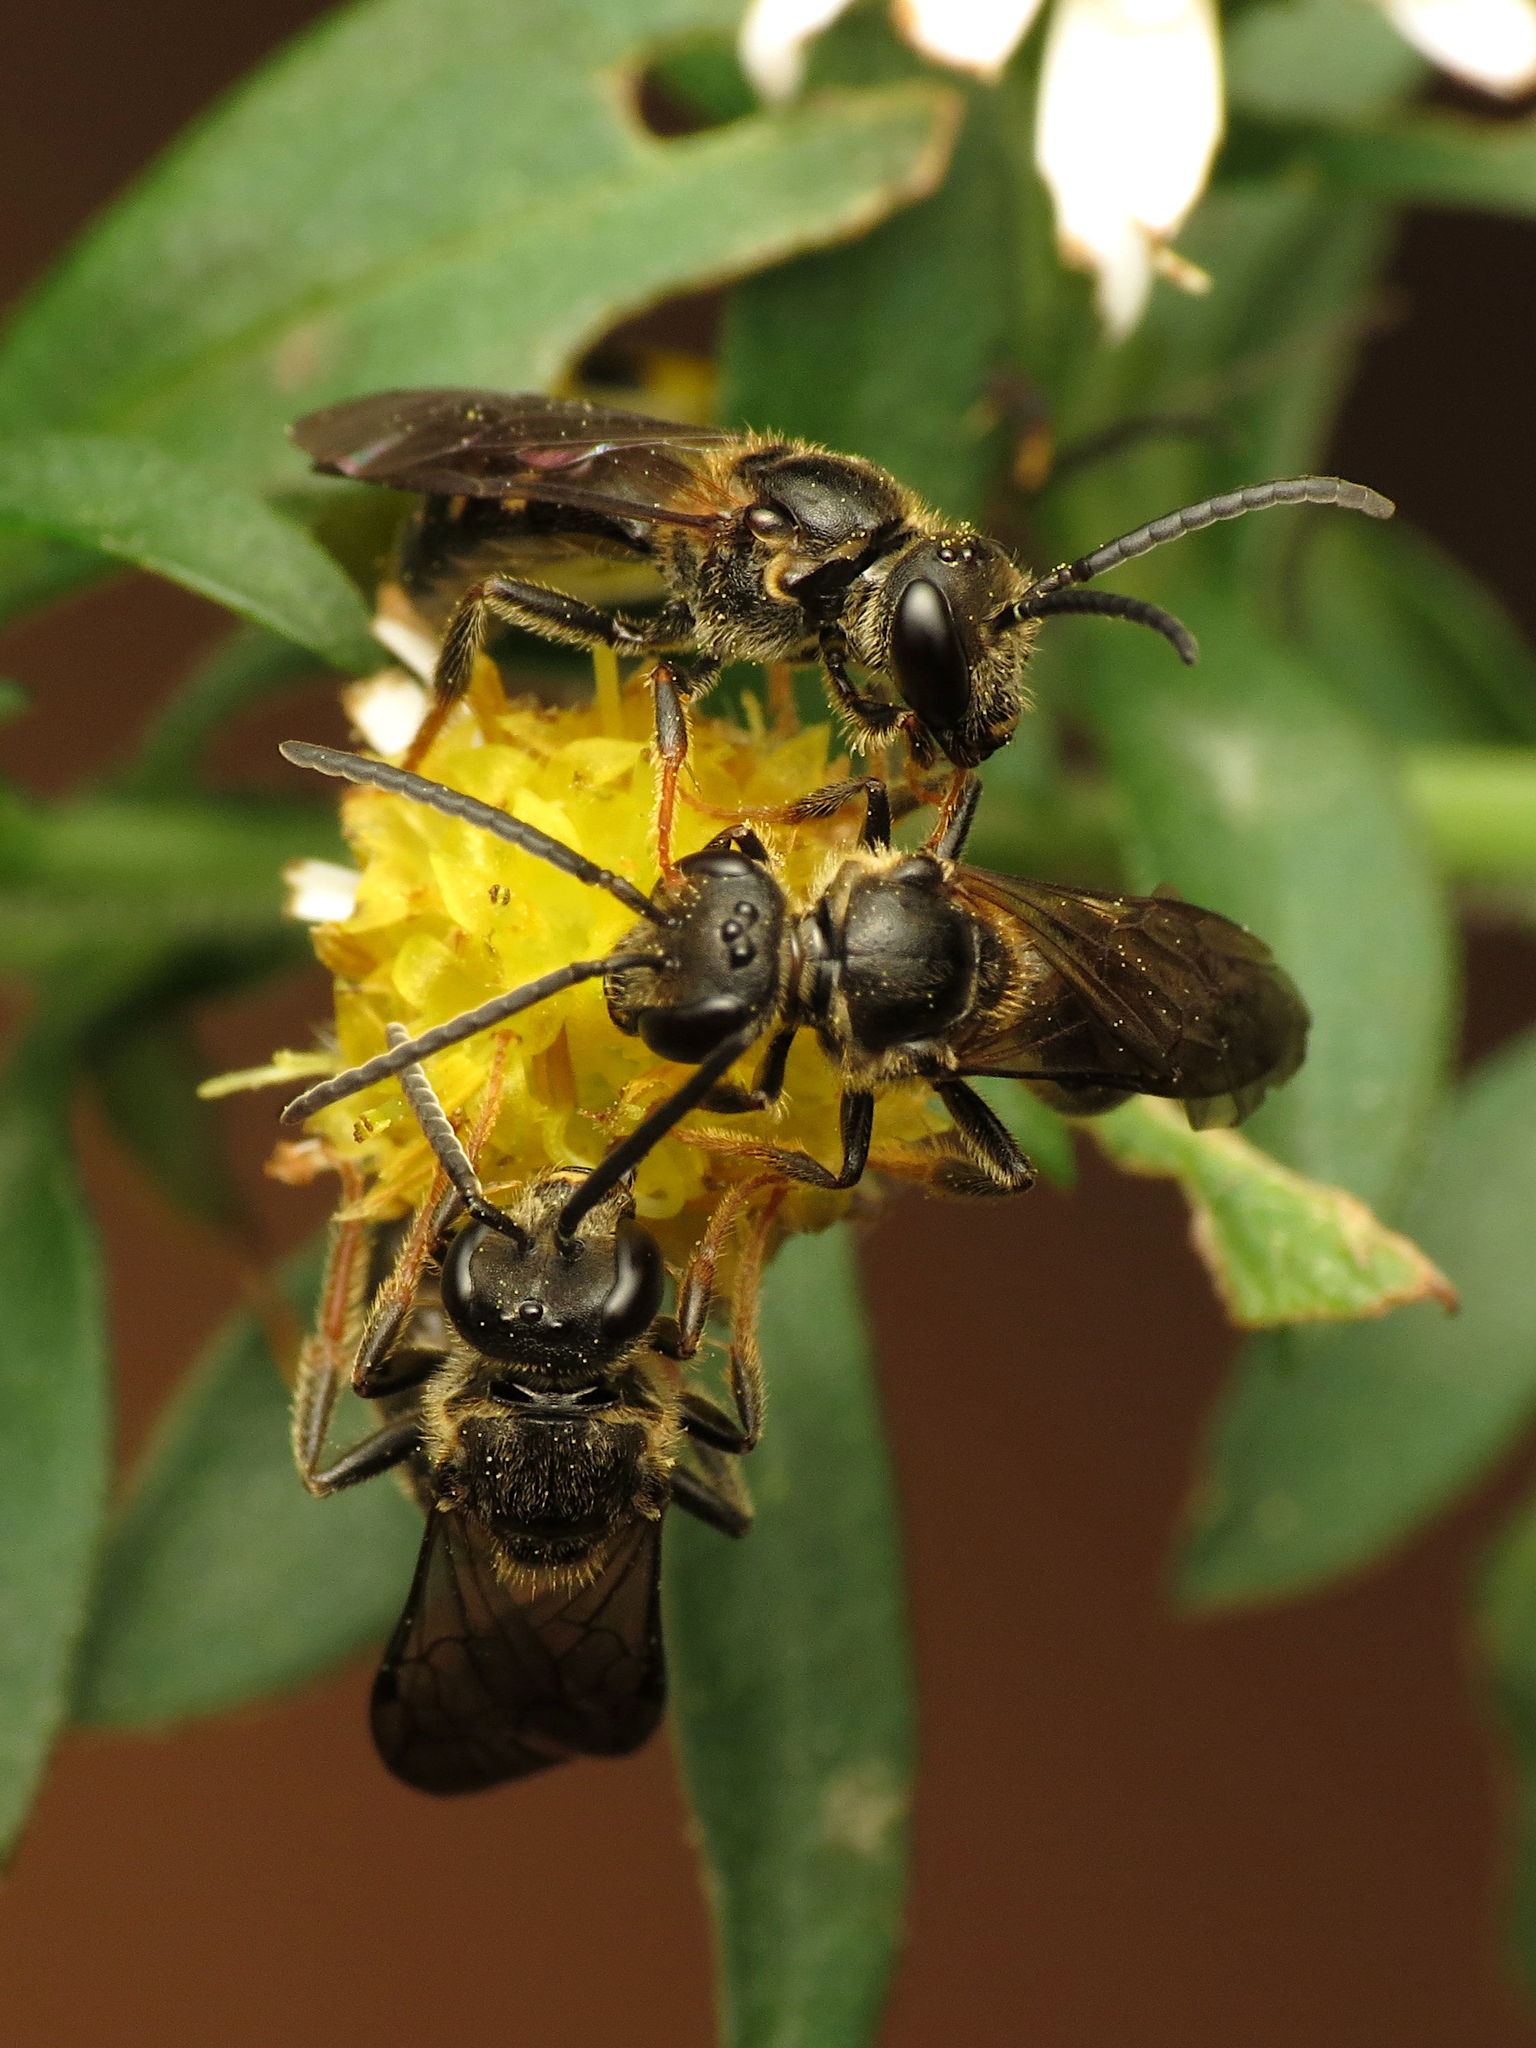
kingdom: Animalia
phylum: Arthropoda
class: Insecta
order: Hymenoptera
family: Halictidae
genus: Lasioglossum
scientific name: Lasioglossum fuscipenne
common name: Brown-winged sweat bee
